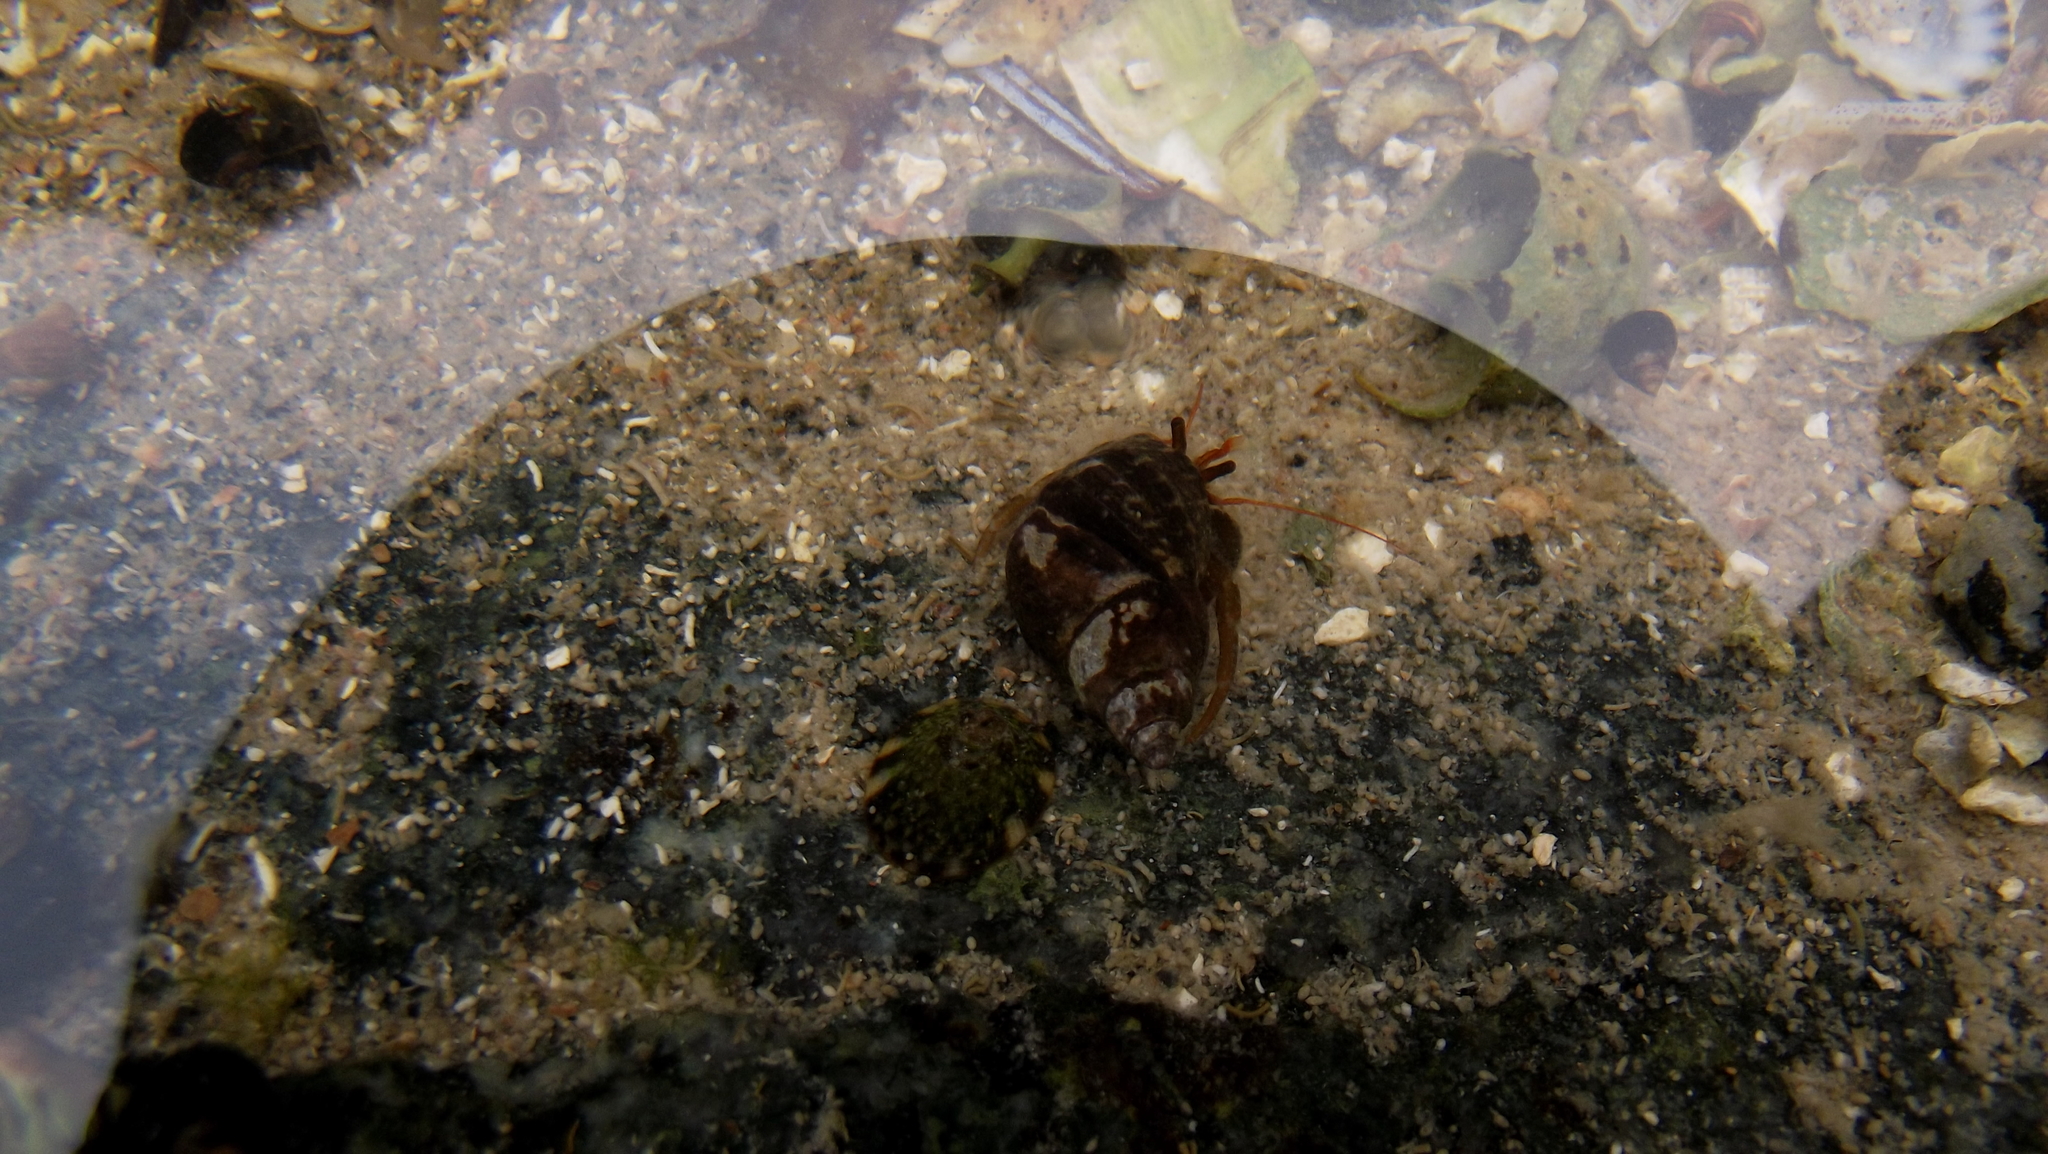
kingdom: Animalia
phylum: Arthropoda
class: Malacostraca
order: Decapoda
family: Paguridae
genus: Pagurus
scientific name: Pagurus granosimanus
